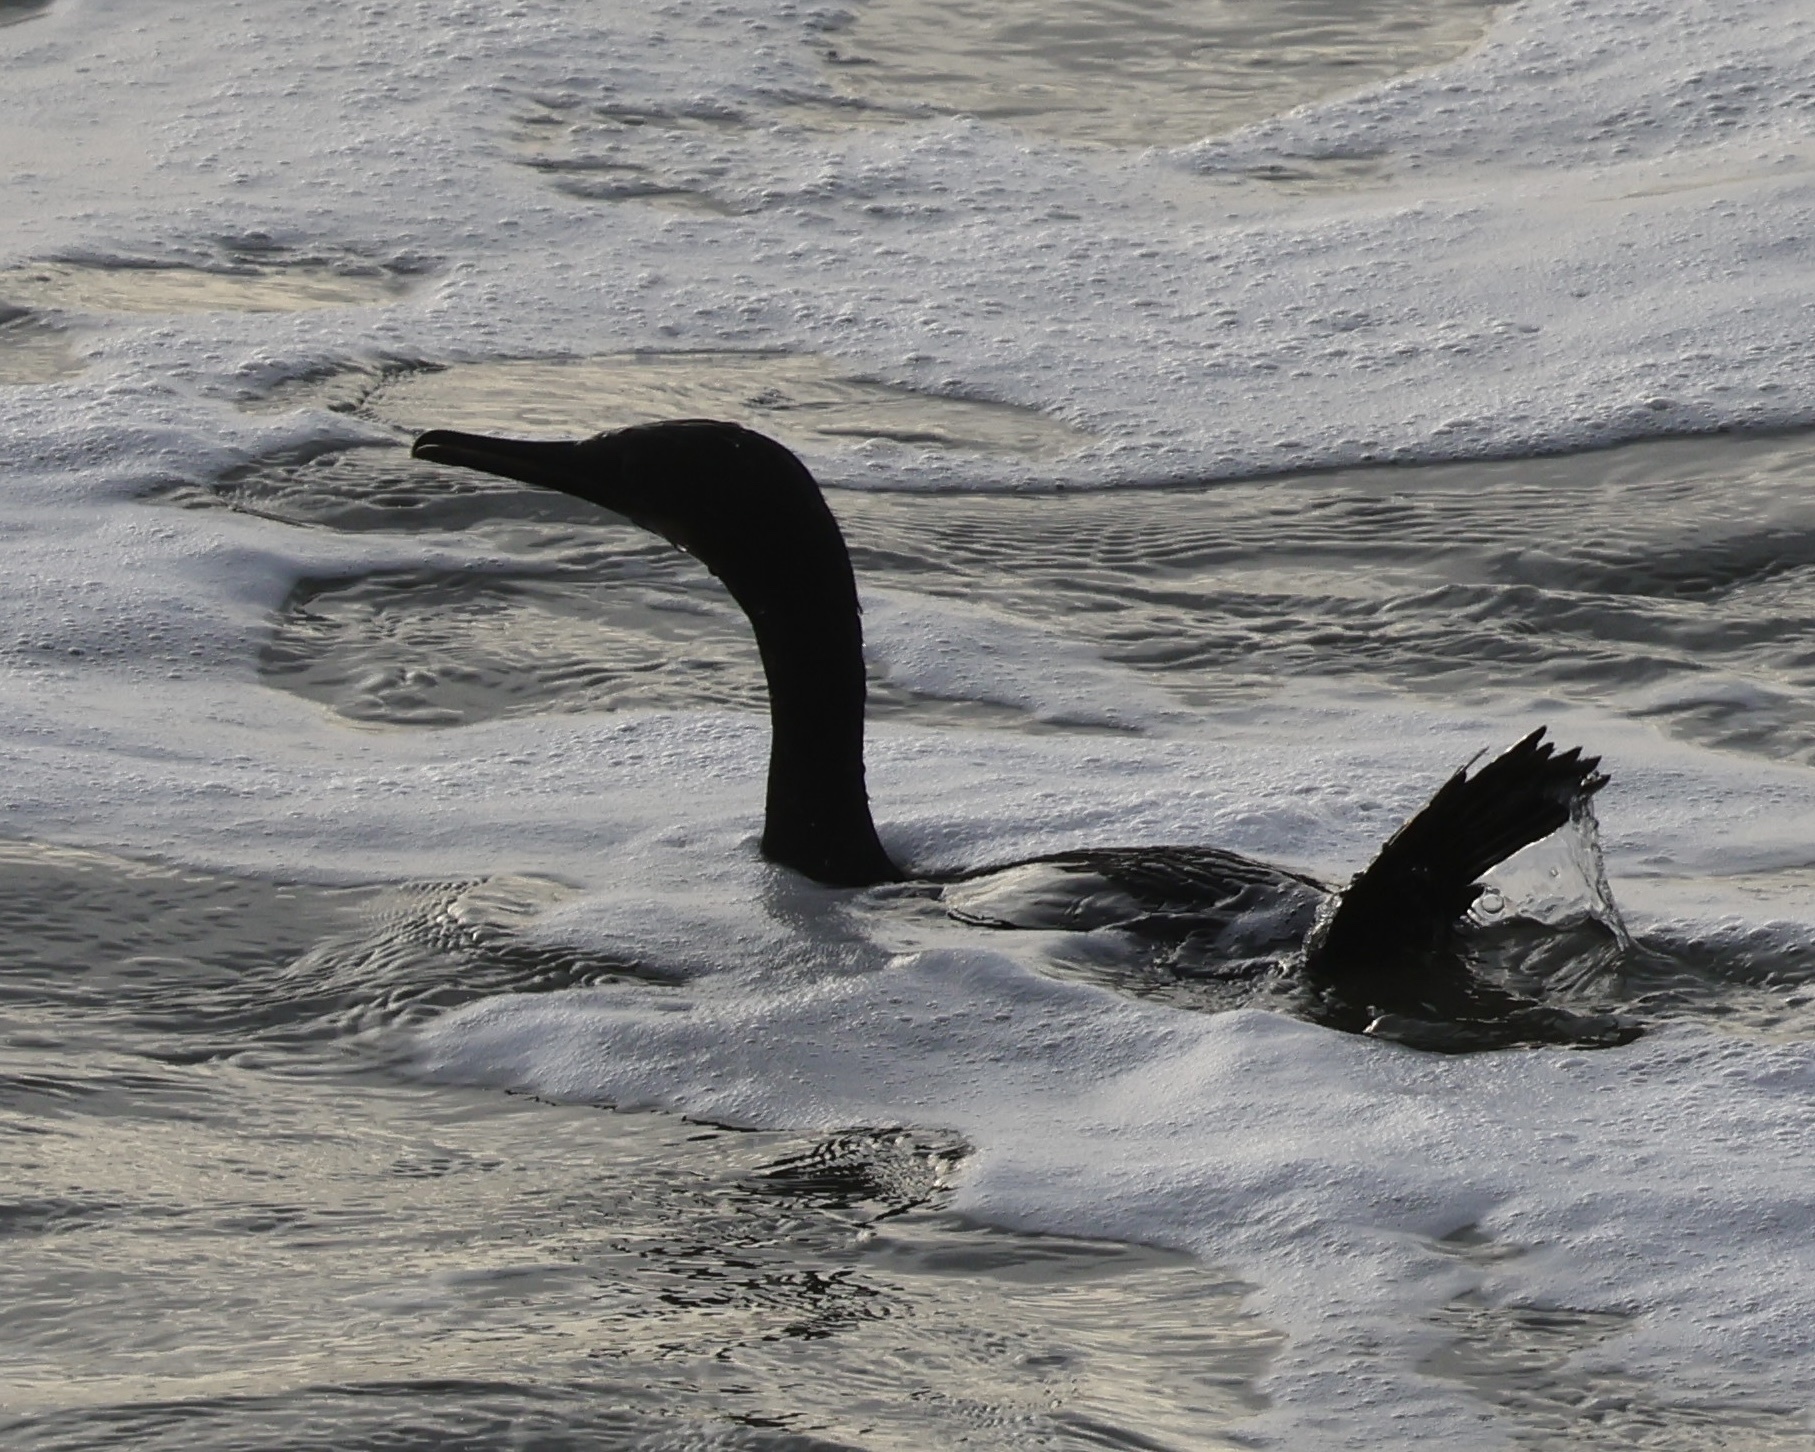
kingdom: Animalia
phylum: Chordata
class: Aves
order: Suliformes
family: Phalacrocoracidae
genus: Urile
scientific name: Urile penicillatus
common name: Brandt's cormorant
